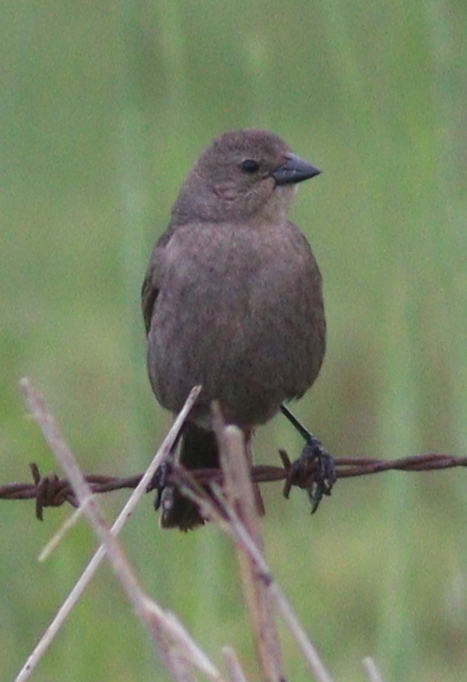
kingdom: Animalia
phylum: Chordata
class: Aves
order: Passeriformes
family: Icteridae
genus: Molothrus
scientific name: Molothrus bonariensis
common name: Shiny cowbird
